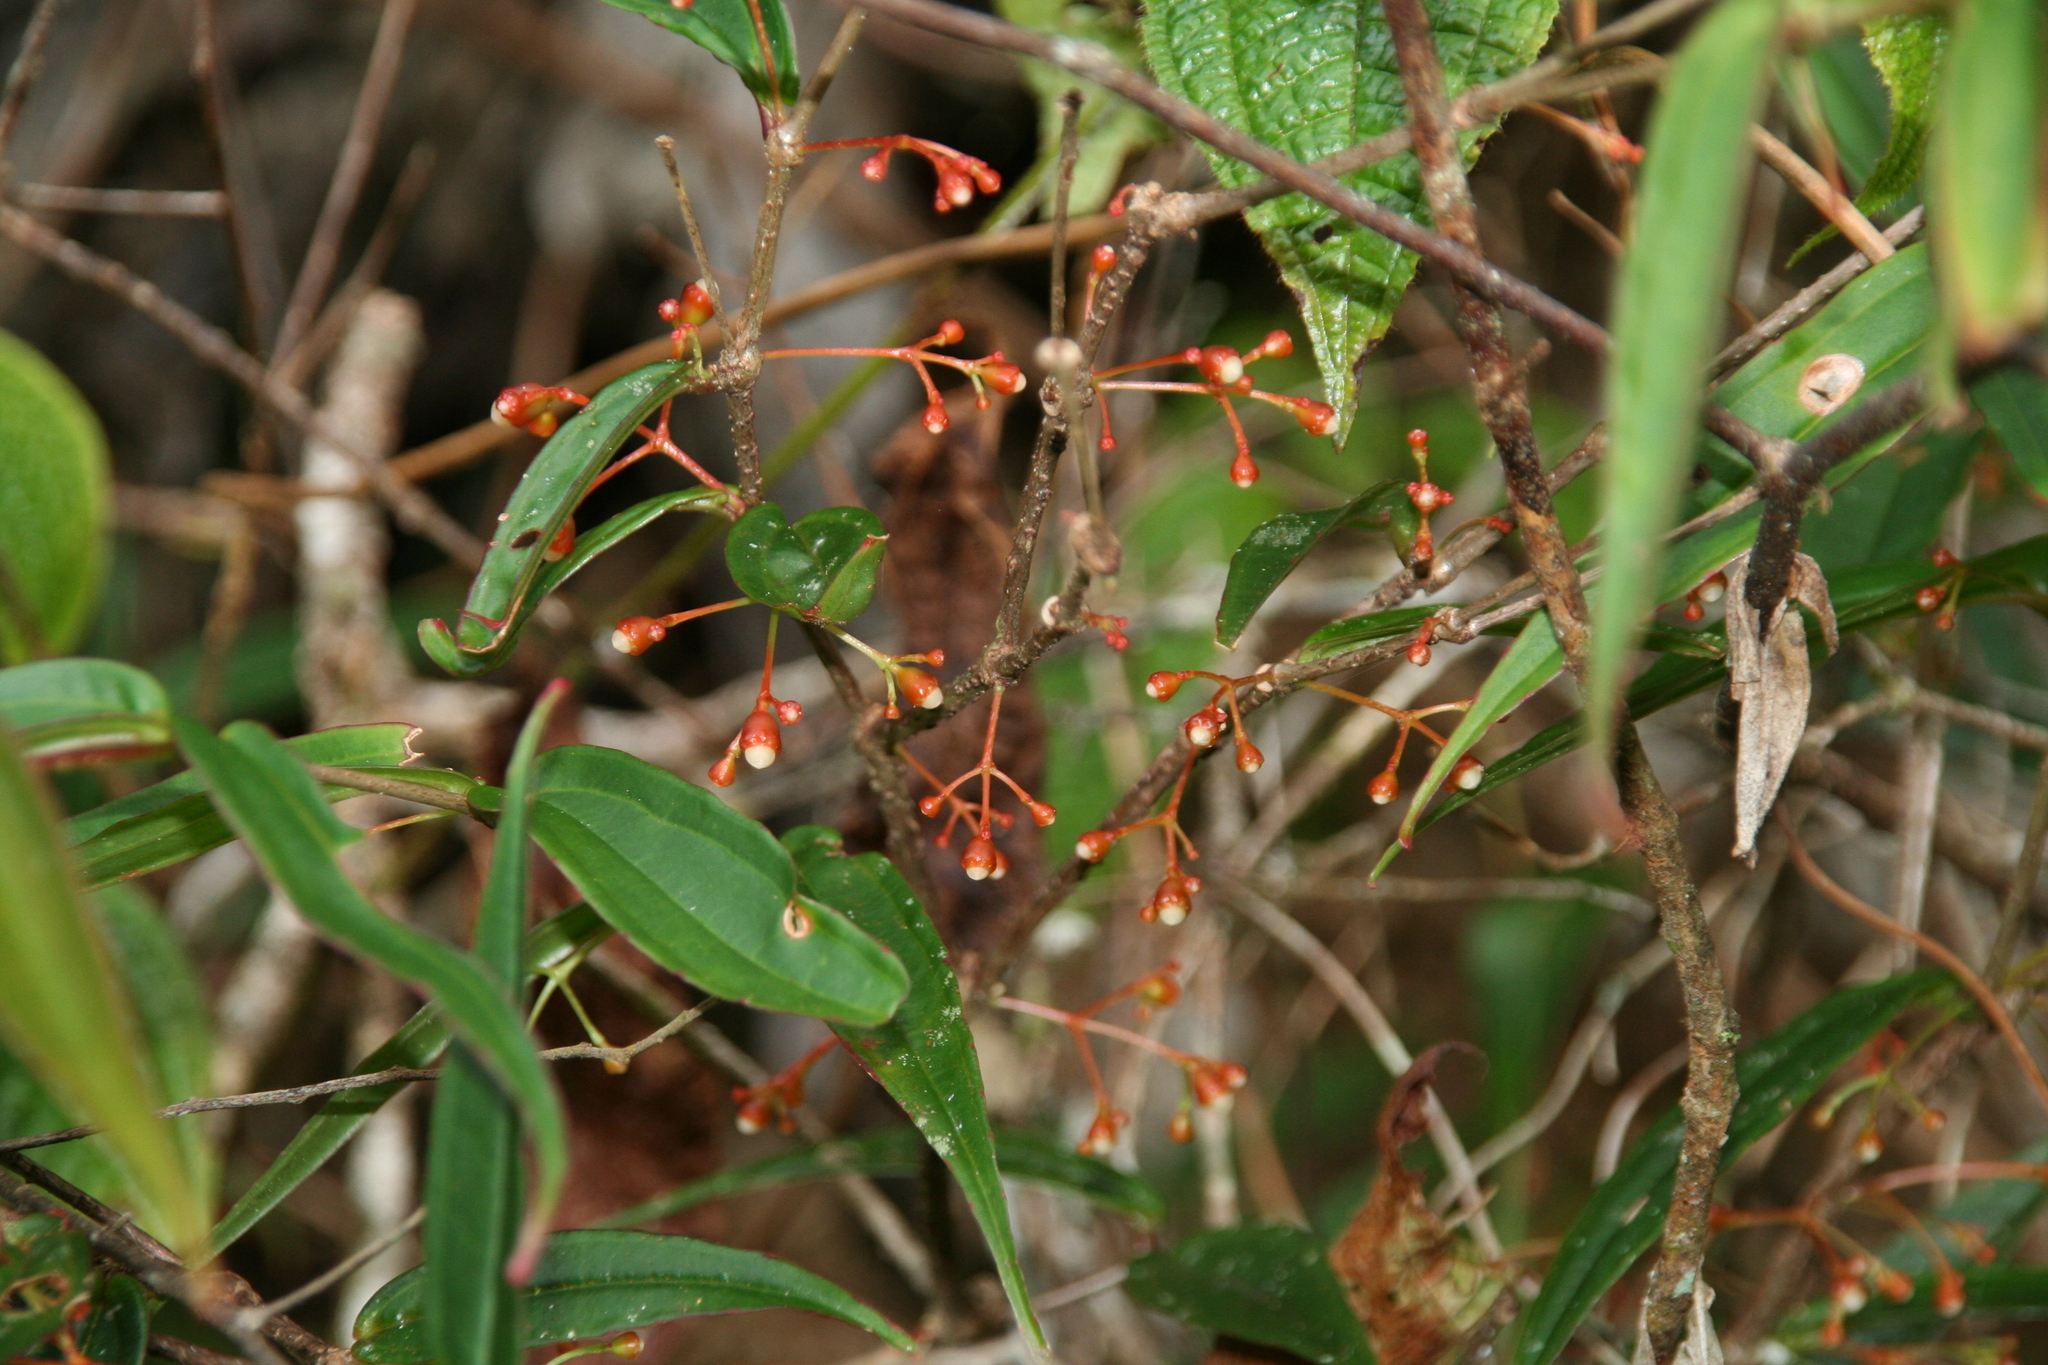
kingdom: Plantae
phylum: Tracheophyta
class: Magnoliopsida
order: Myrtales
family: Melastomataceae
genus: Medinilla
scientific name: Medinilla micrantha
